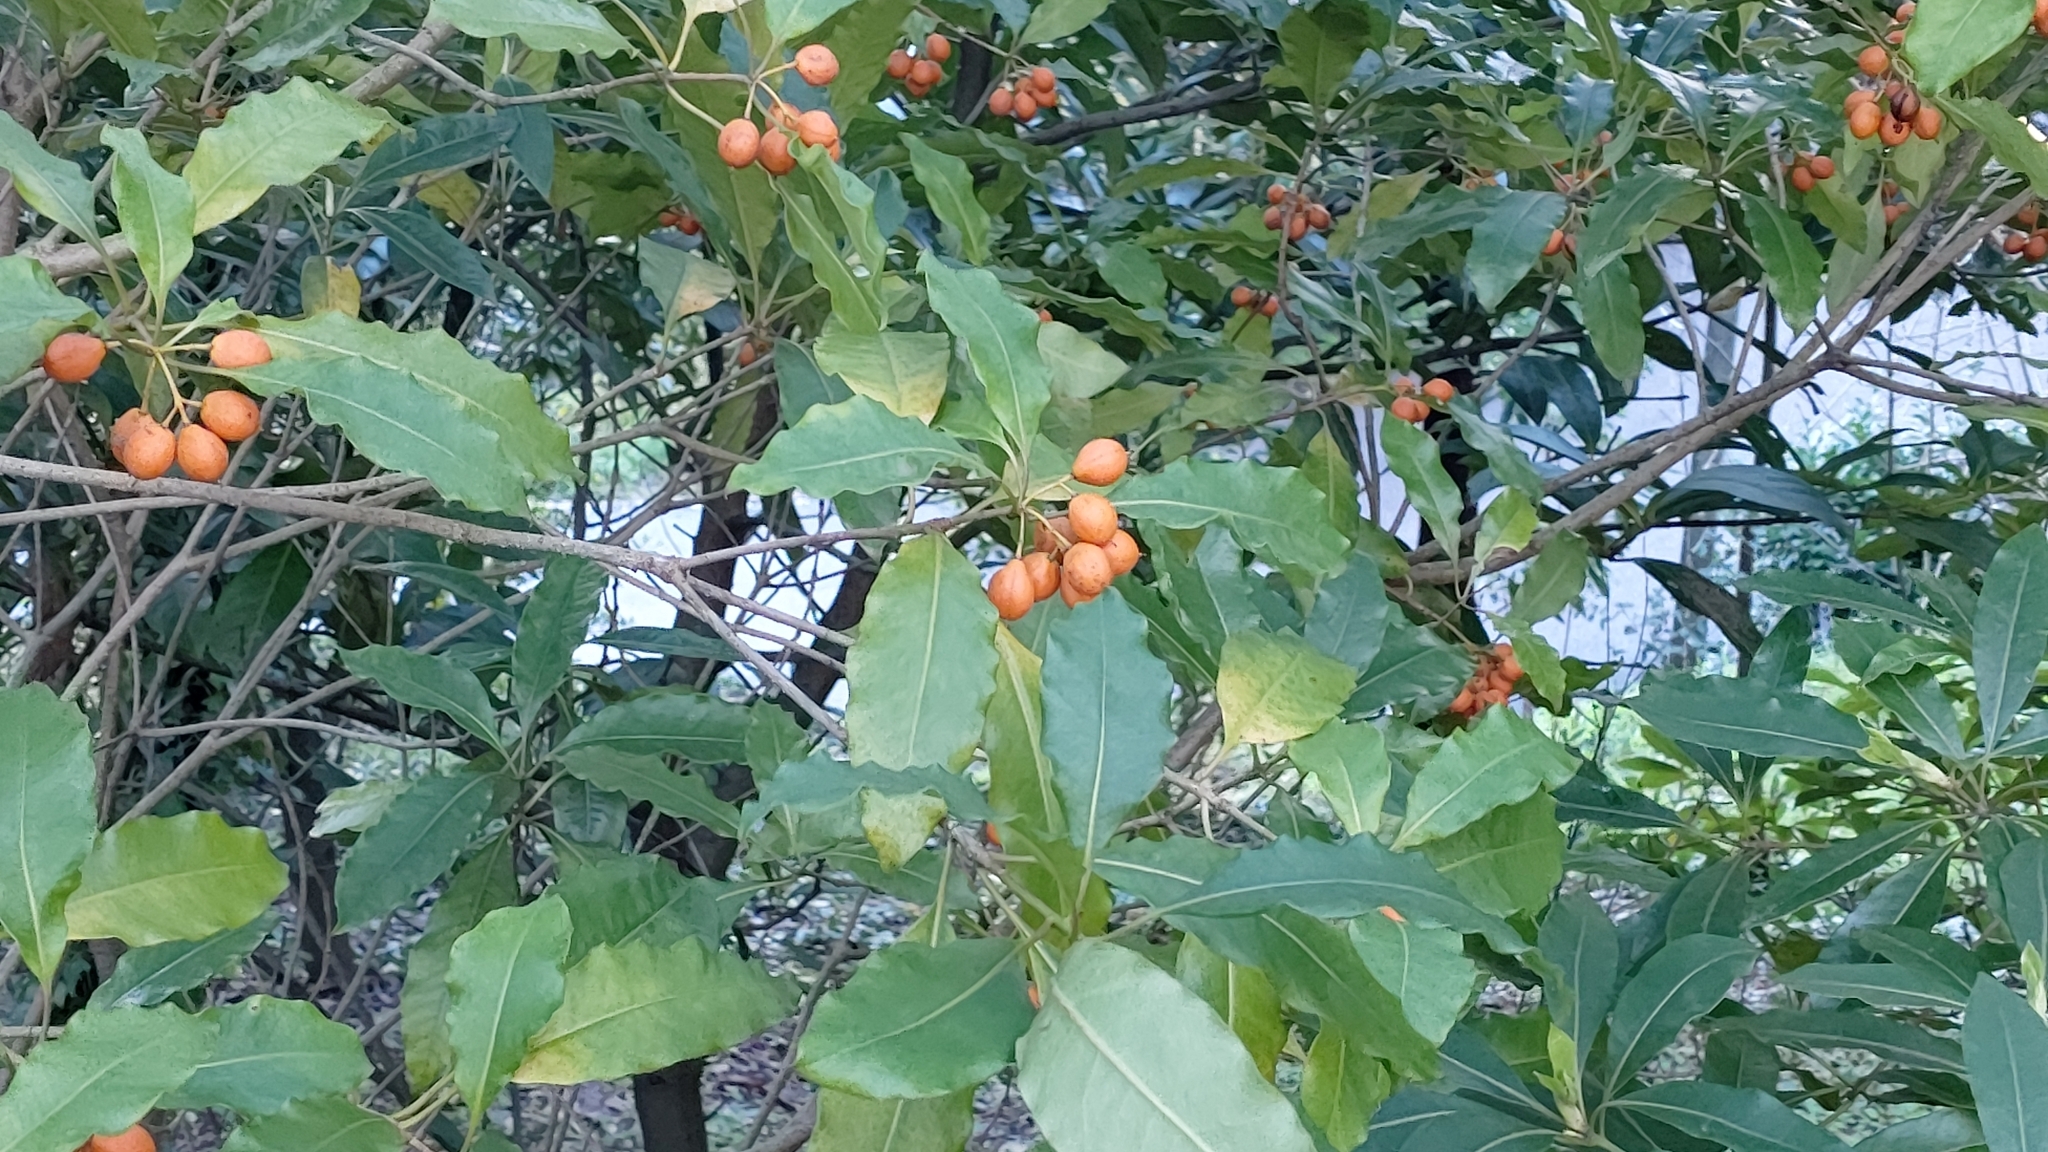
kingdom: Plantae
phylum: Tracheophyta
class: Magnoliopsida
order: Apiales
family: Pittosporaceae
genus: Pittosporum
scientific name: Pittosporum undulatum
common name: Australian cheesewood
